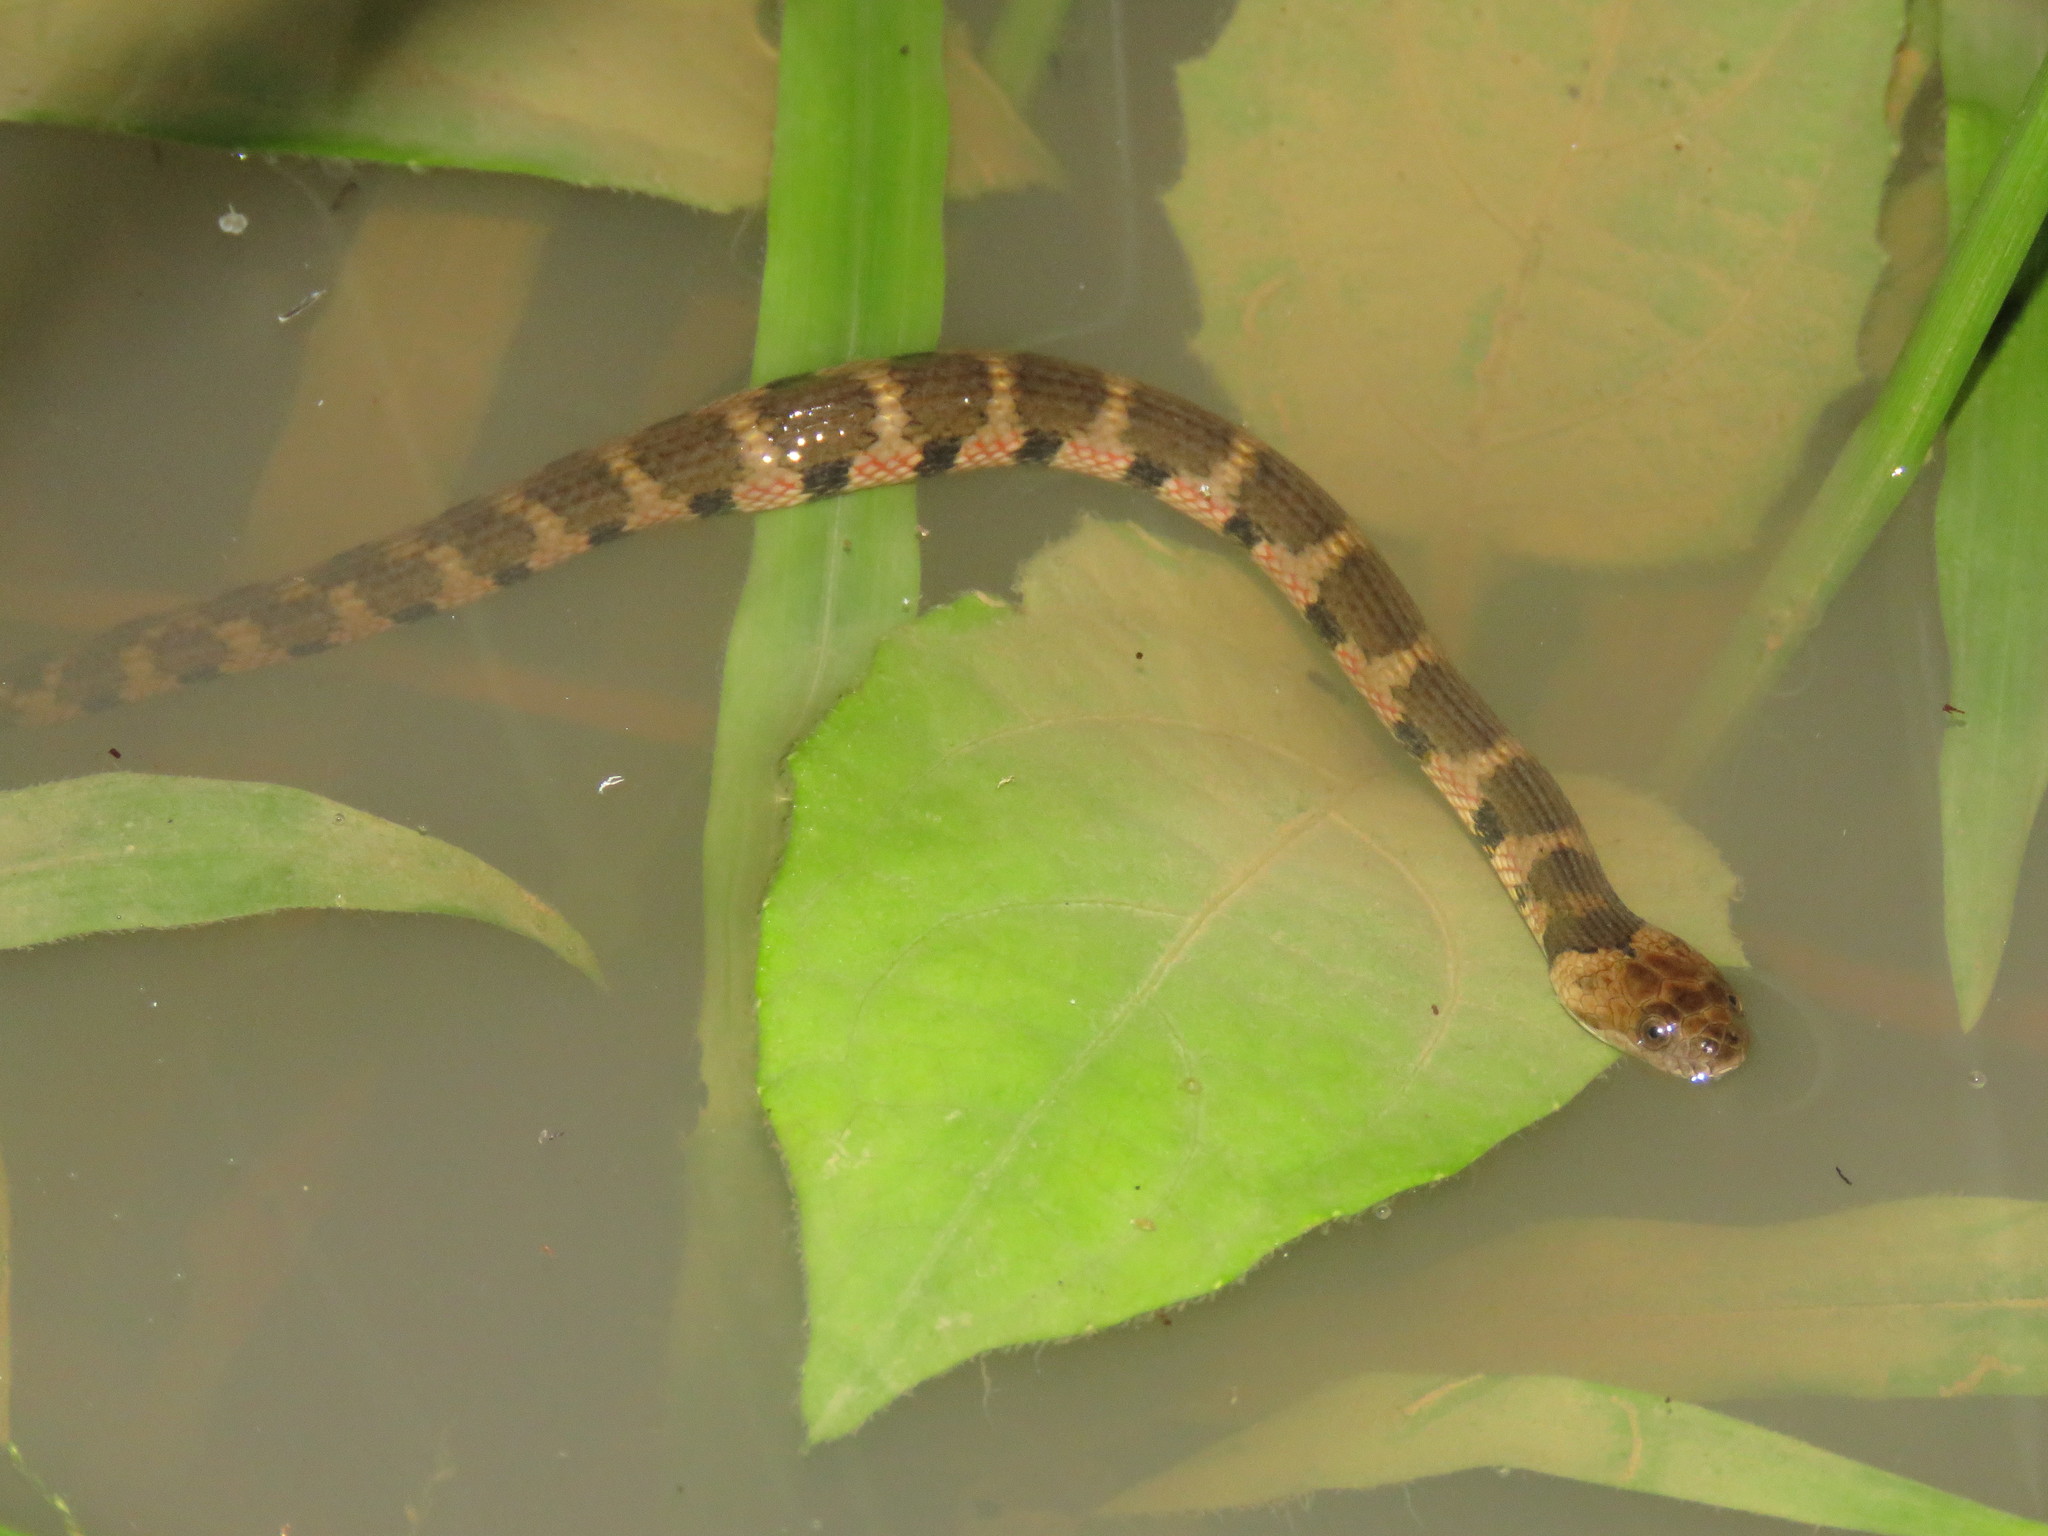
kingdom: Animalia
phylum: Chordata
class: Squamata
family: Colubridae
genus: Helicops
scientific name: Helicops angulatus
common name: Mountain keelback
